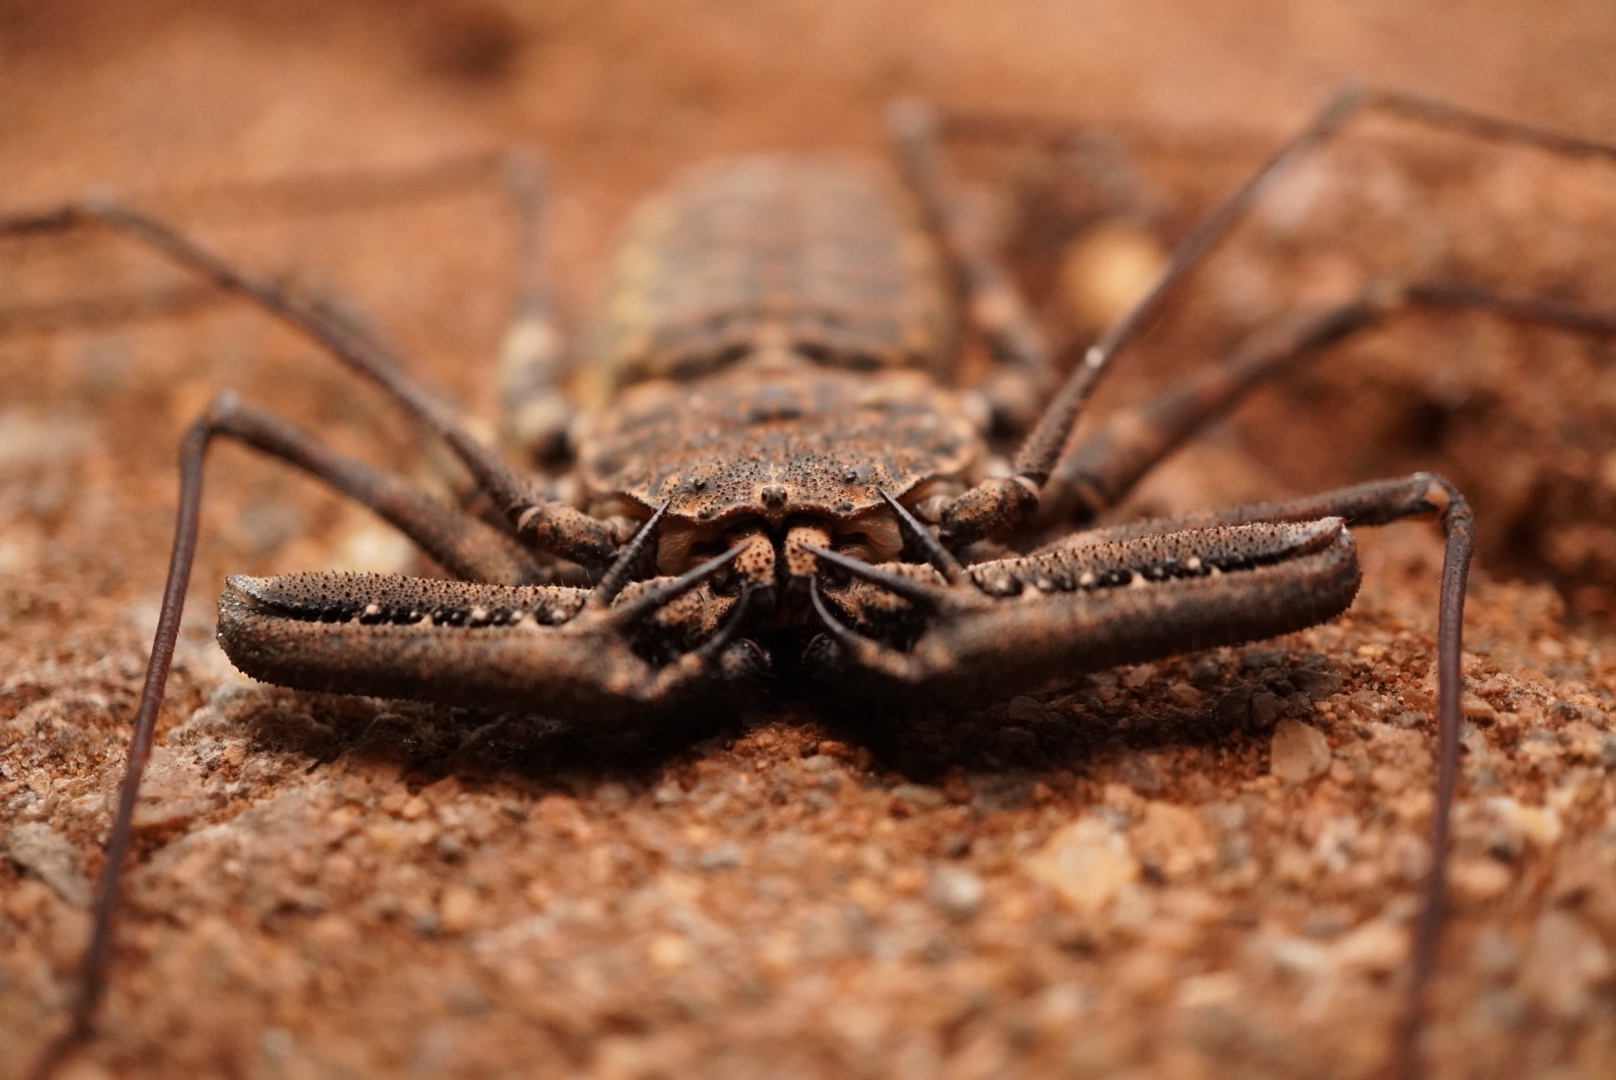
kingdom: Animalia
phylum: Arthropoda
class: Arachnida
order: Amblypygi
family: Phrynichidae
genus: Damon
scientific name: Damon annulatipes
